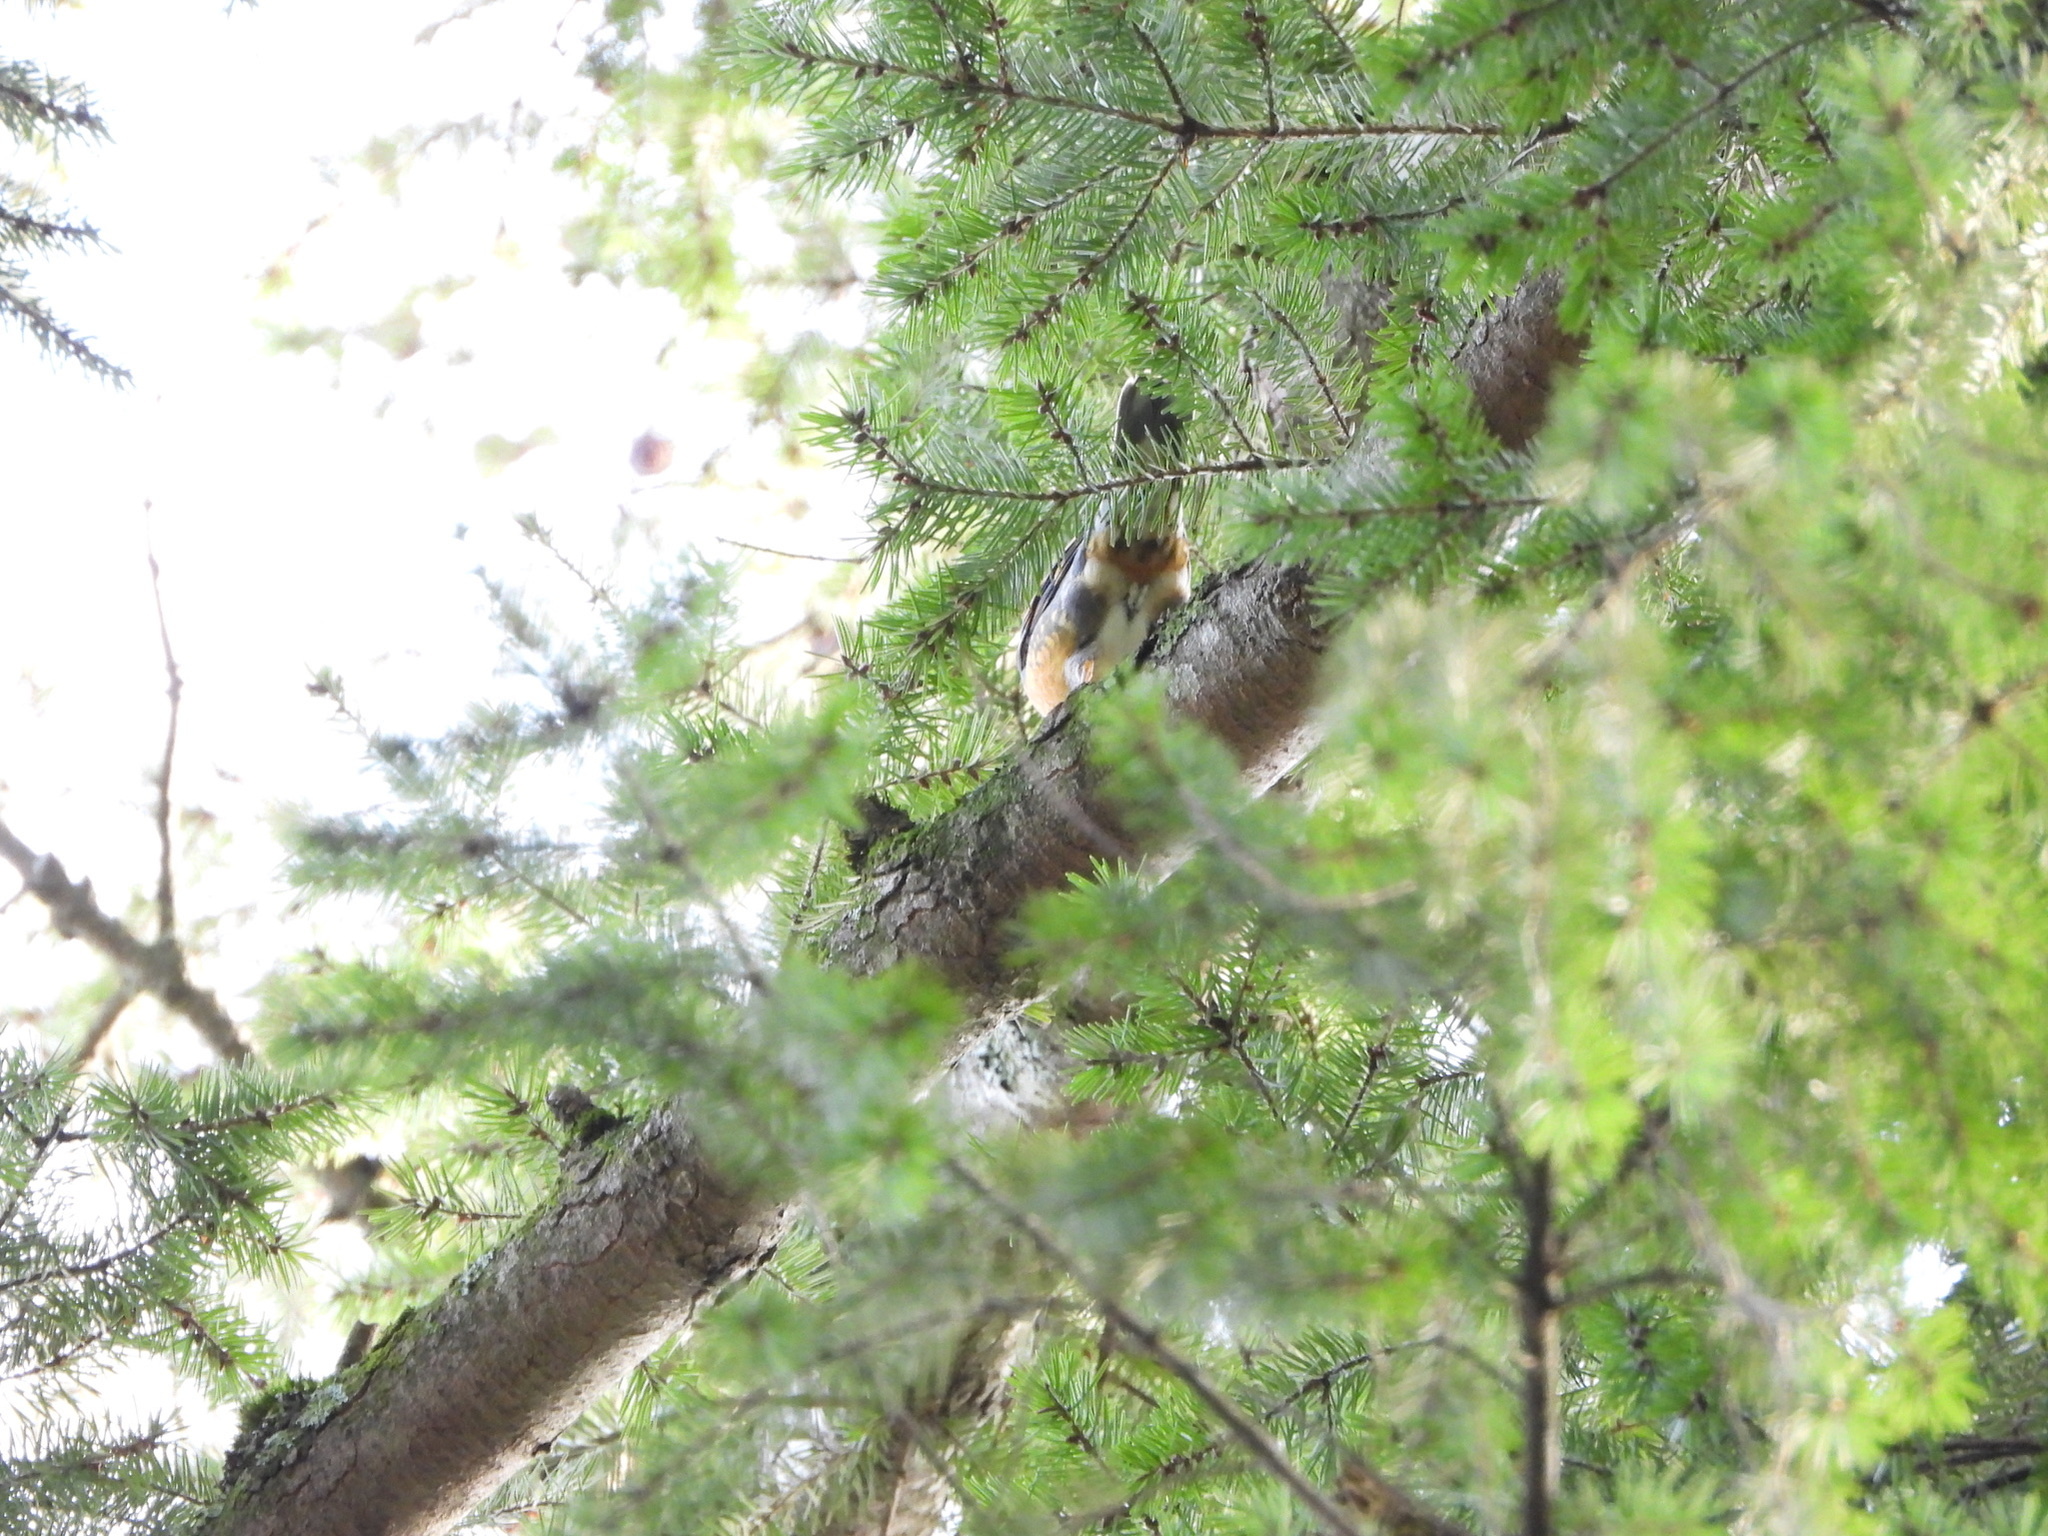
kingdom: Animalia
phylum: Chordata
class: Aves
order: Passeriformes
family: Turdidae
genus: Ixoreus
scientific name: Ixoreus naevius
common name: Varied thrush
